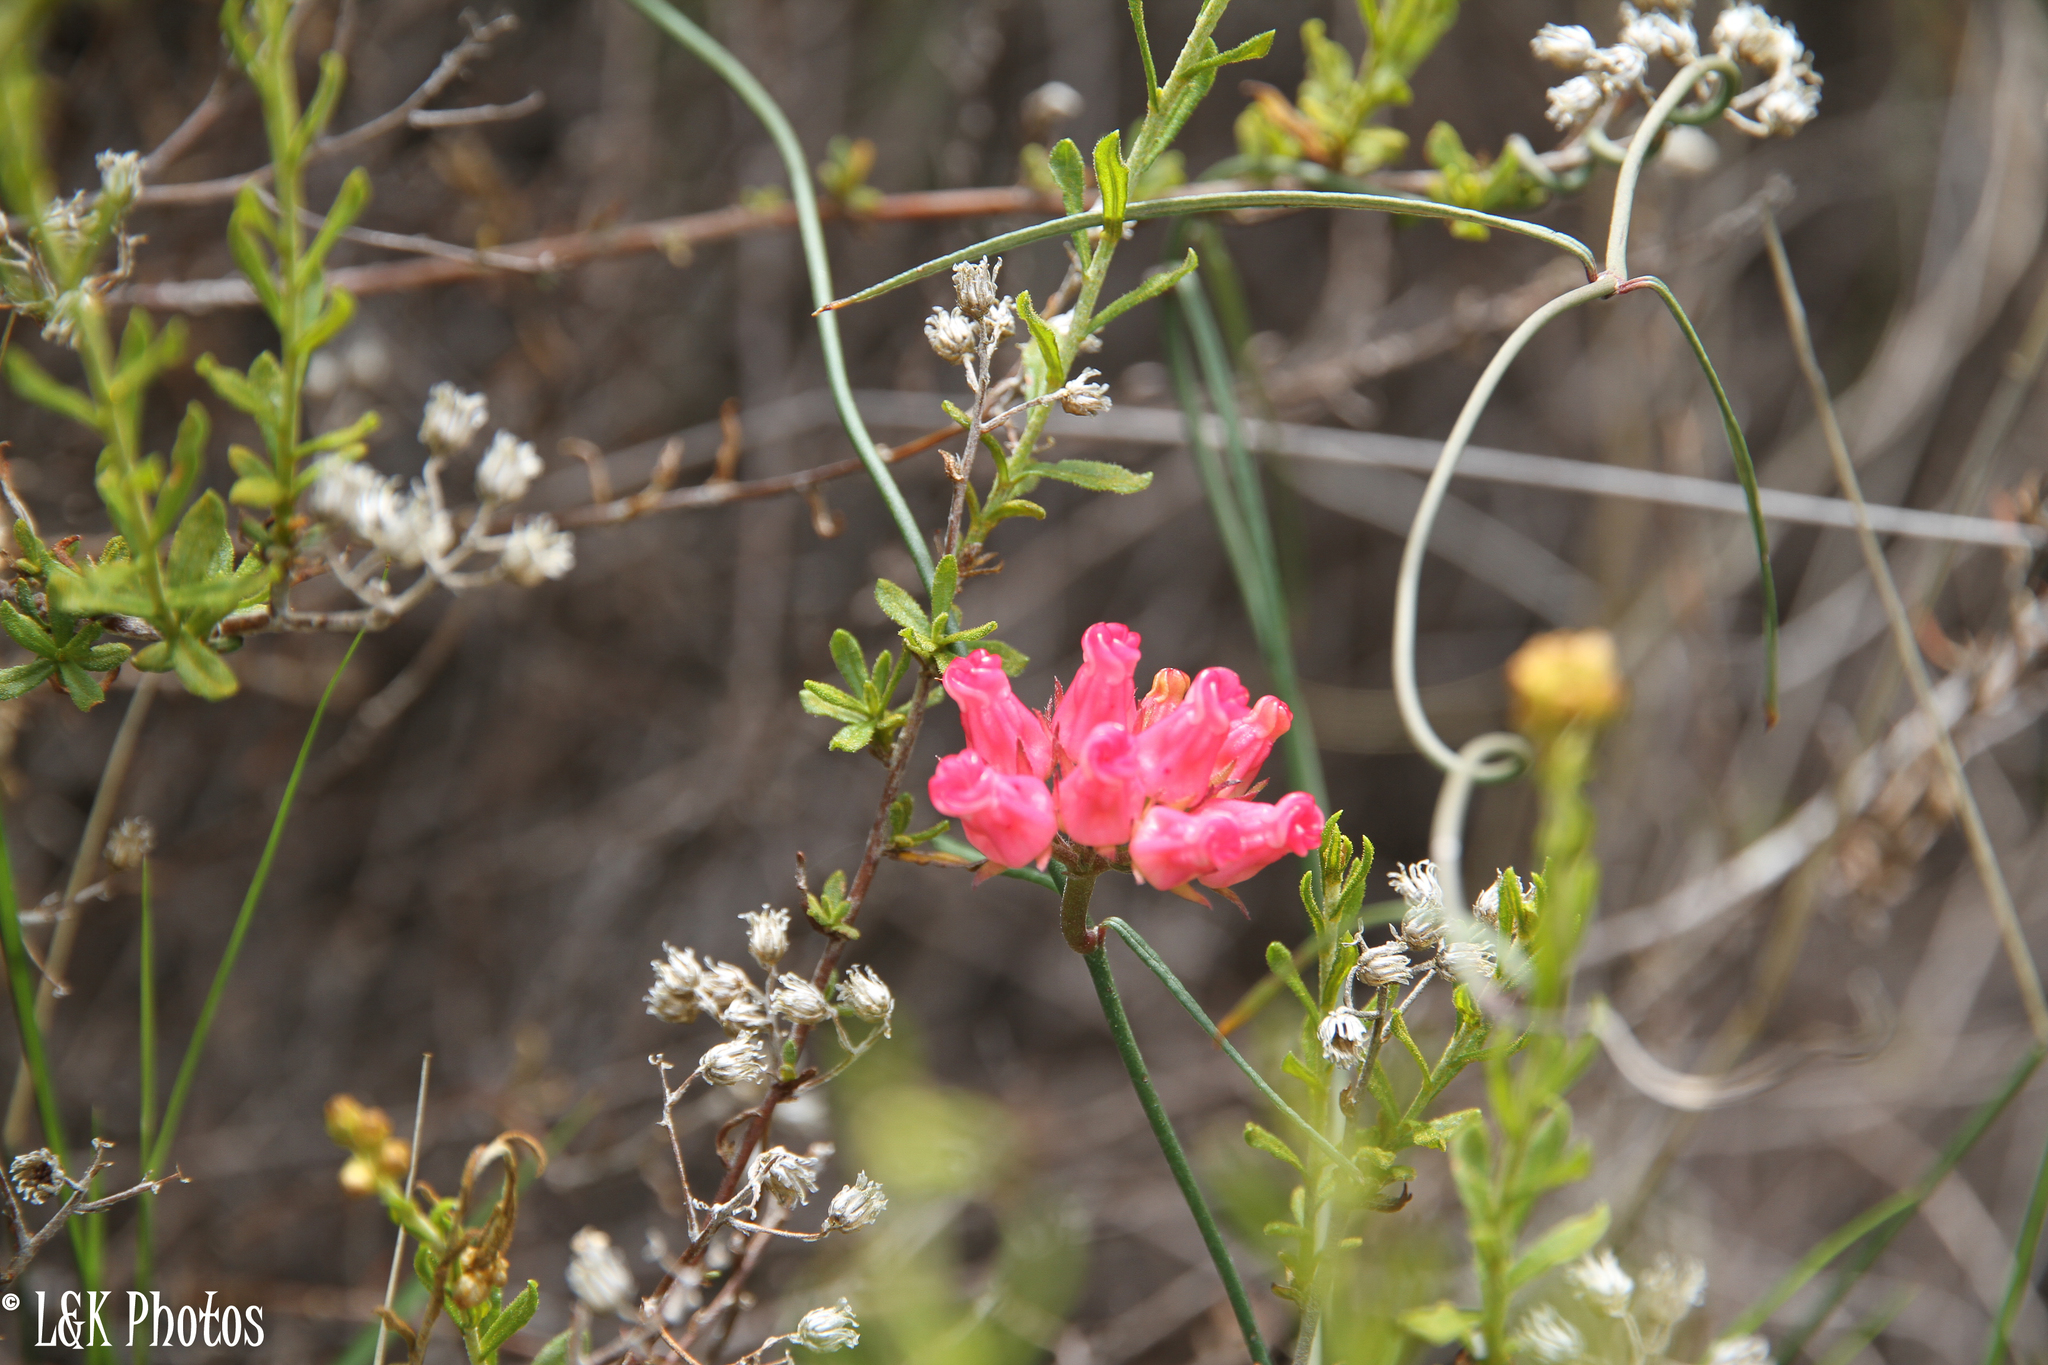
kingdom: Plantae
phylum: Tracheophyta
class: Magnoliopsida
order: Gentianales
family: Apocynaceae
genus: Microloma
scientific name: Microloma tenuifolium
